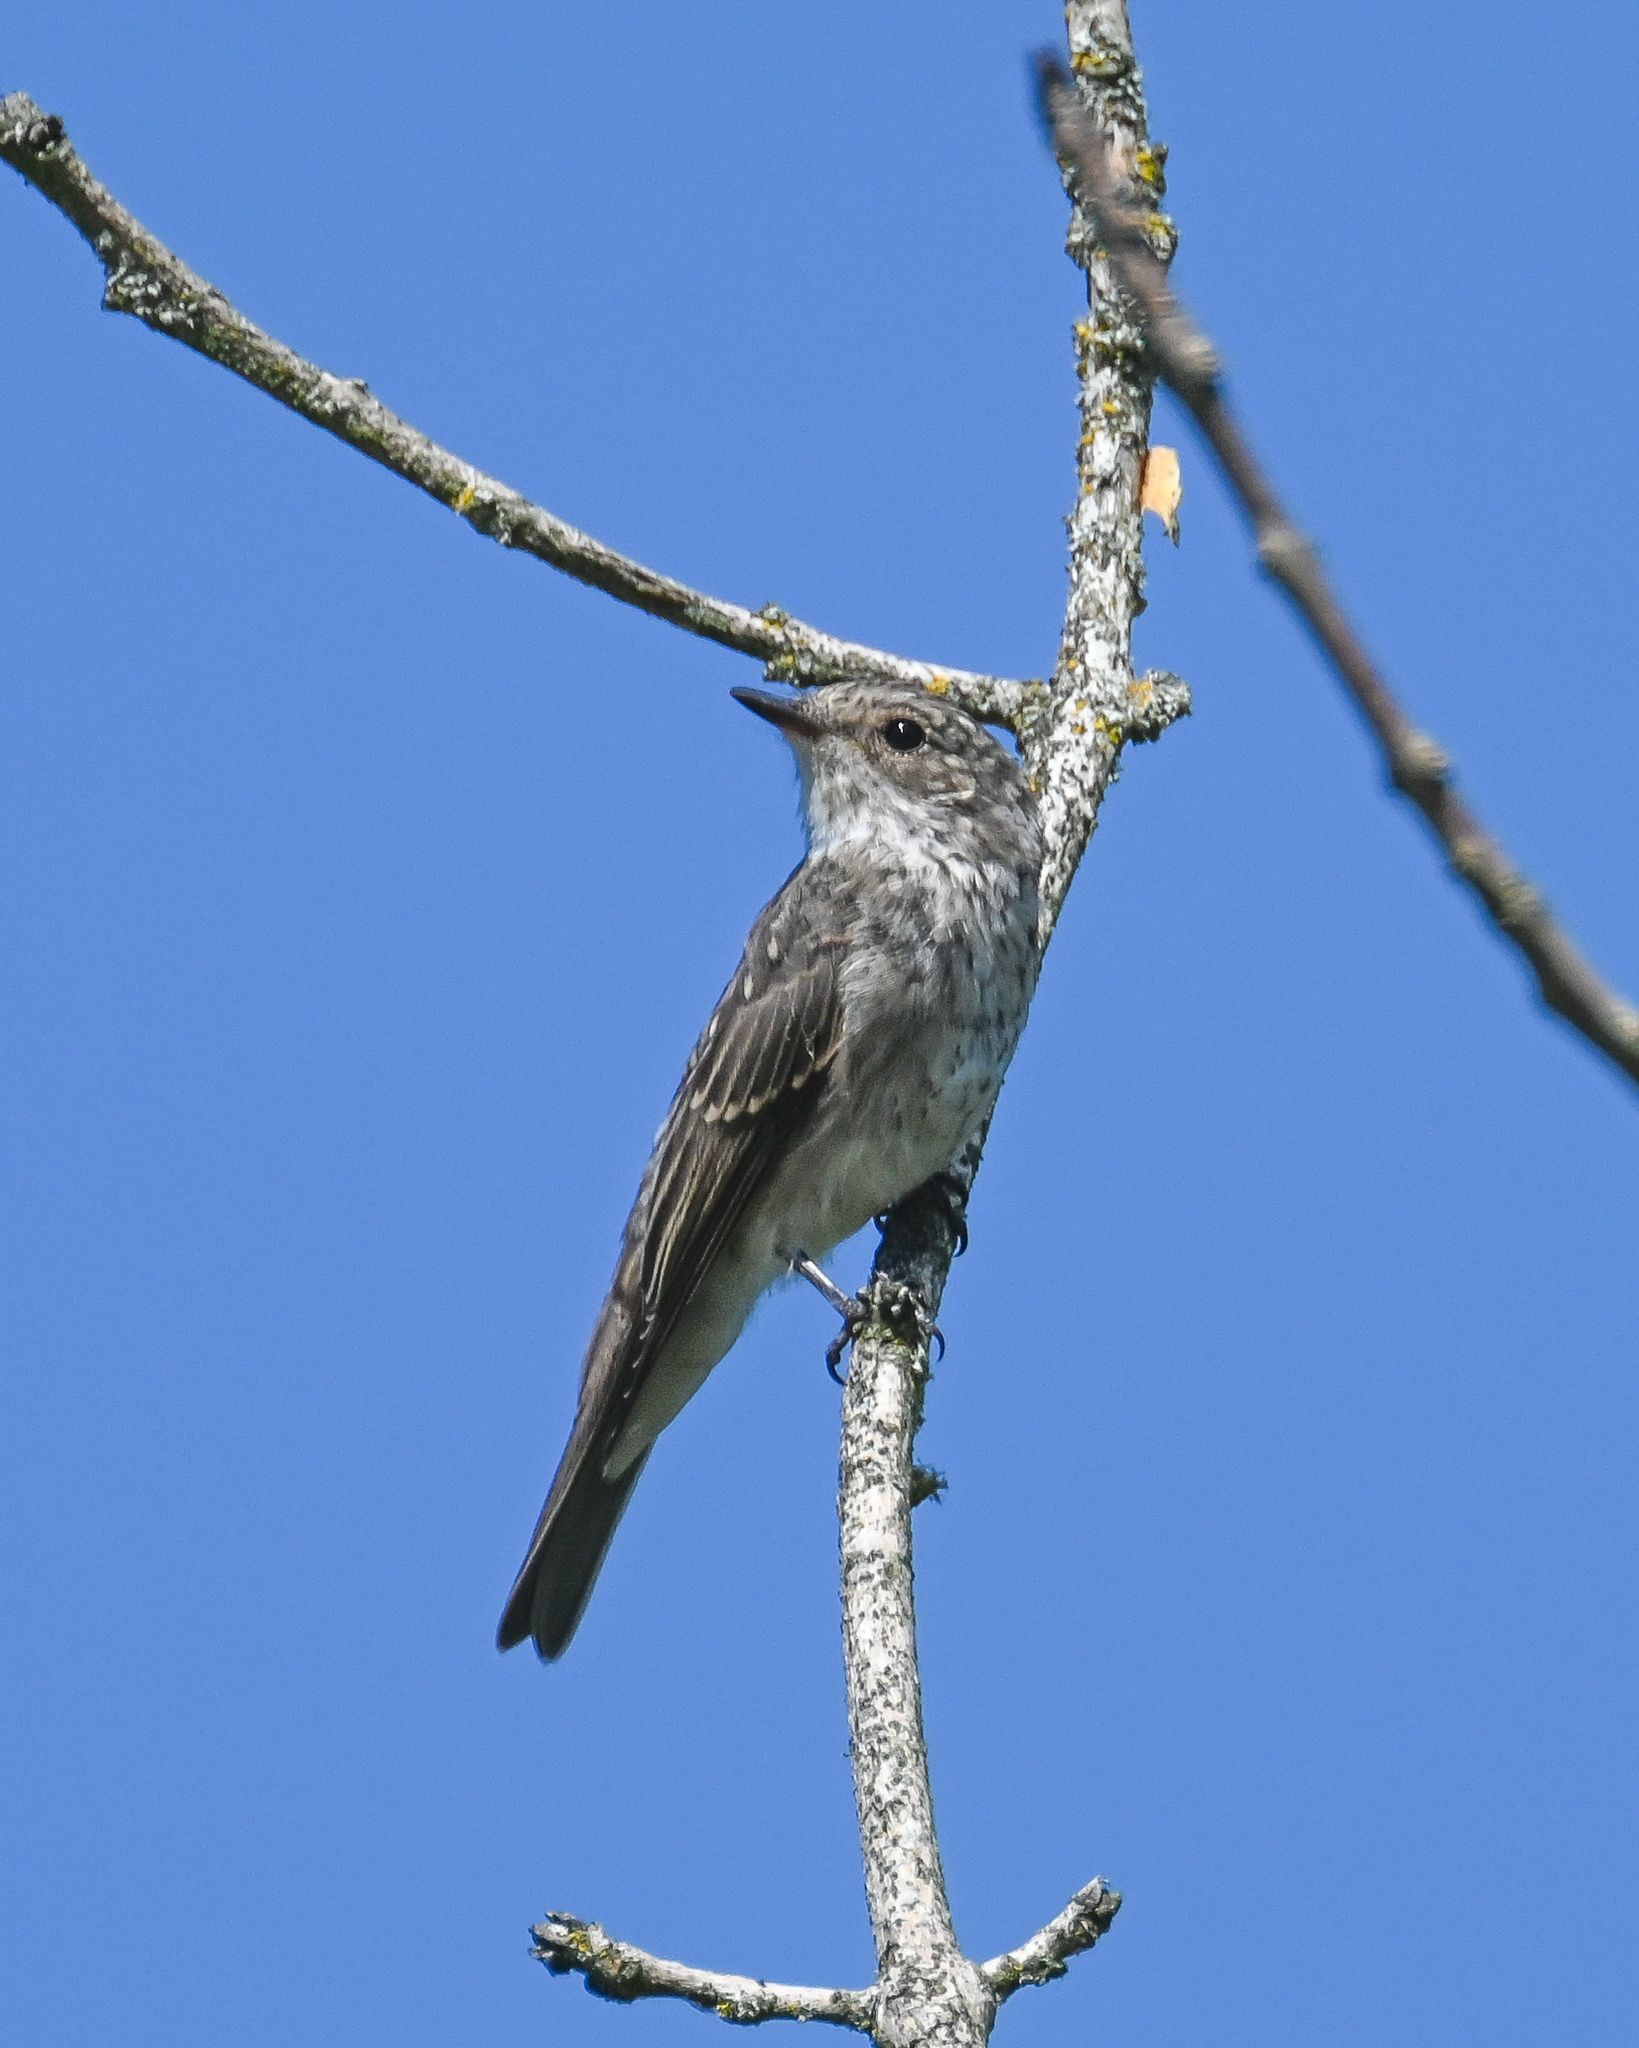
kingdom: Animalia
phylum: Chordata
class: Aves
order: Passeriformes
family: Muscicapidae
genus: Muscicapa
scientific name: Muscicapa striata
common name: Spotted flycatcher
